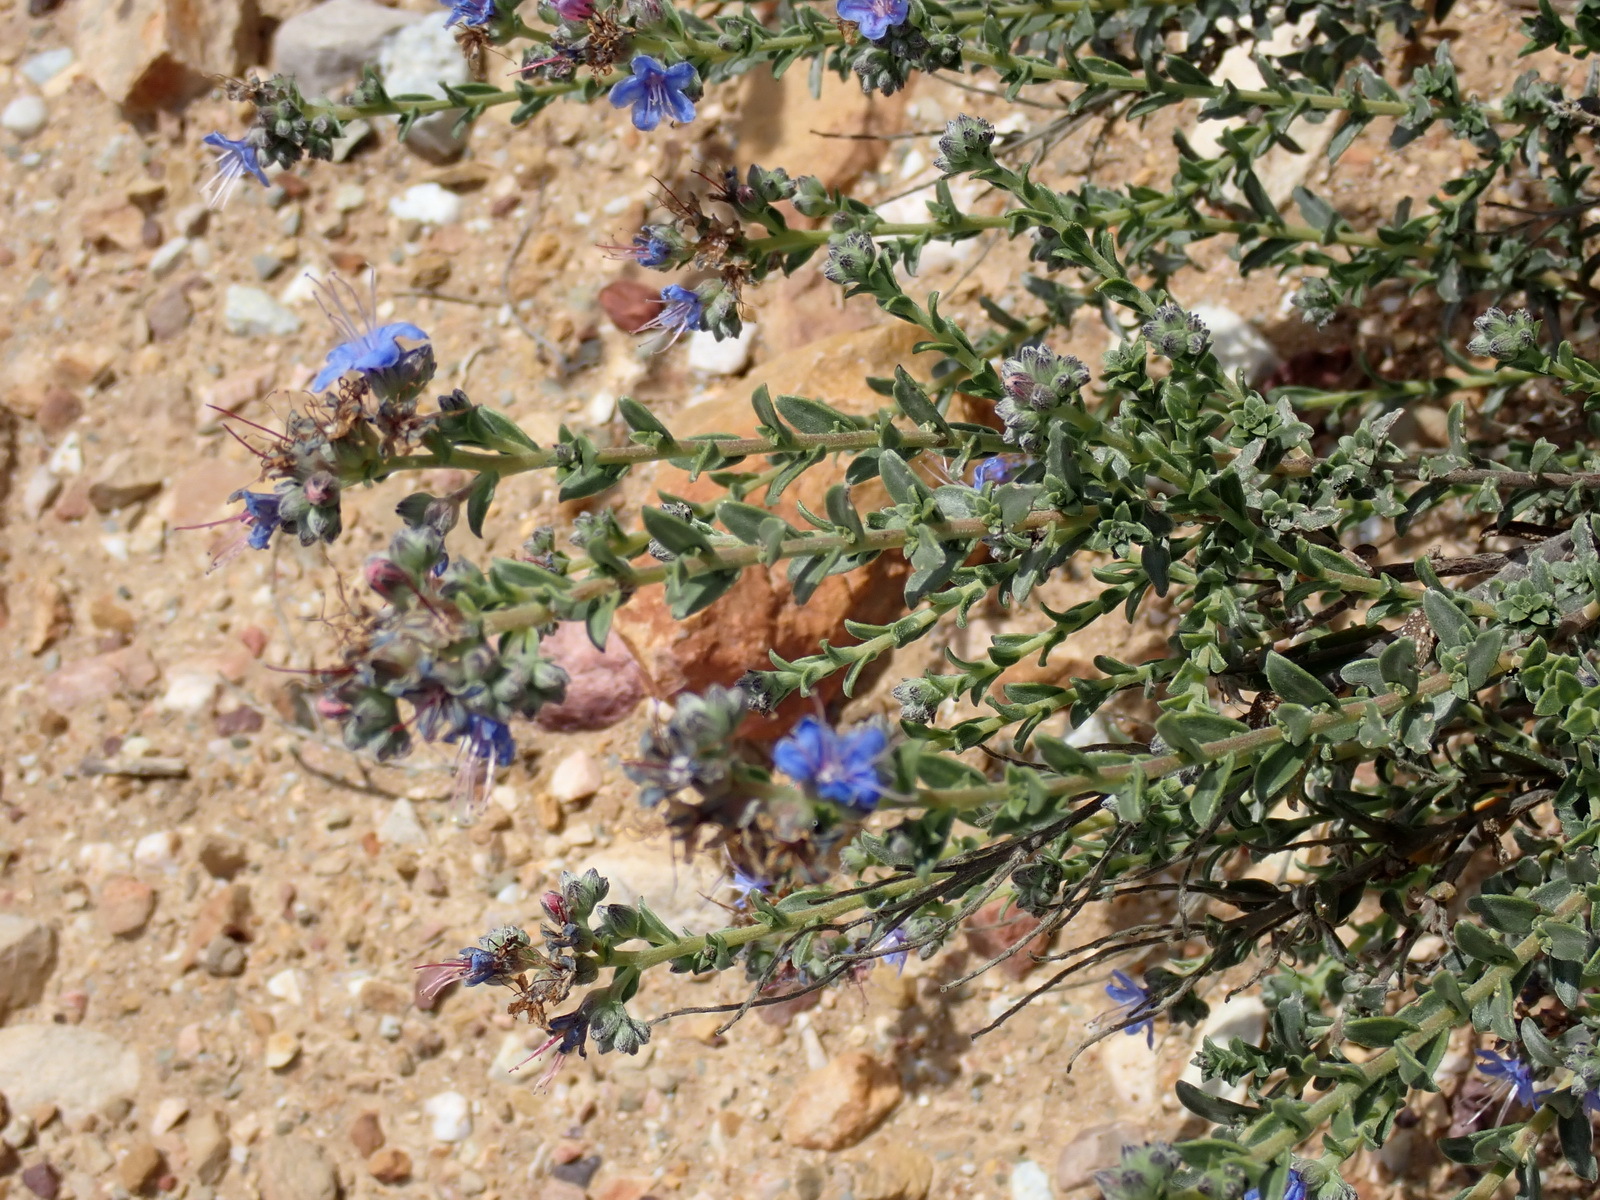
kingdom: Plantae
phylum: Tracheophyta
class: Magnoliopsida
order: Boraginales
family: Boraginaceae
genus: Lobostemon
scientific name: Lobostemon echioides
